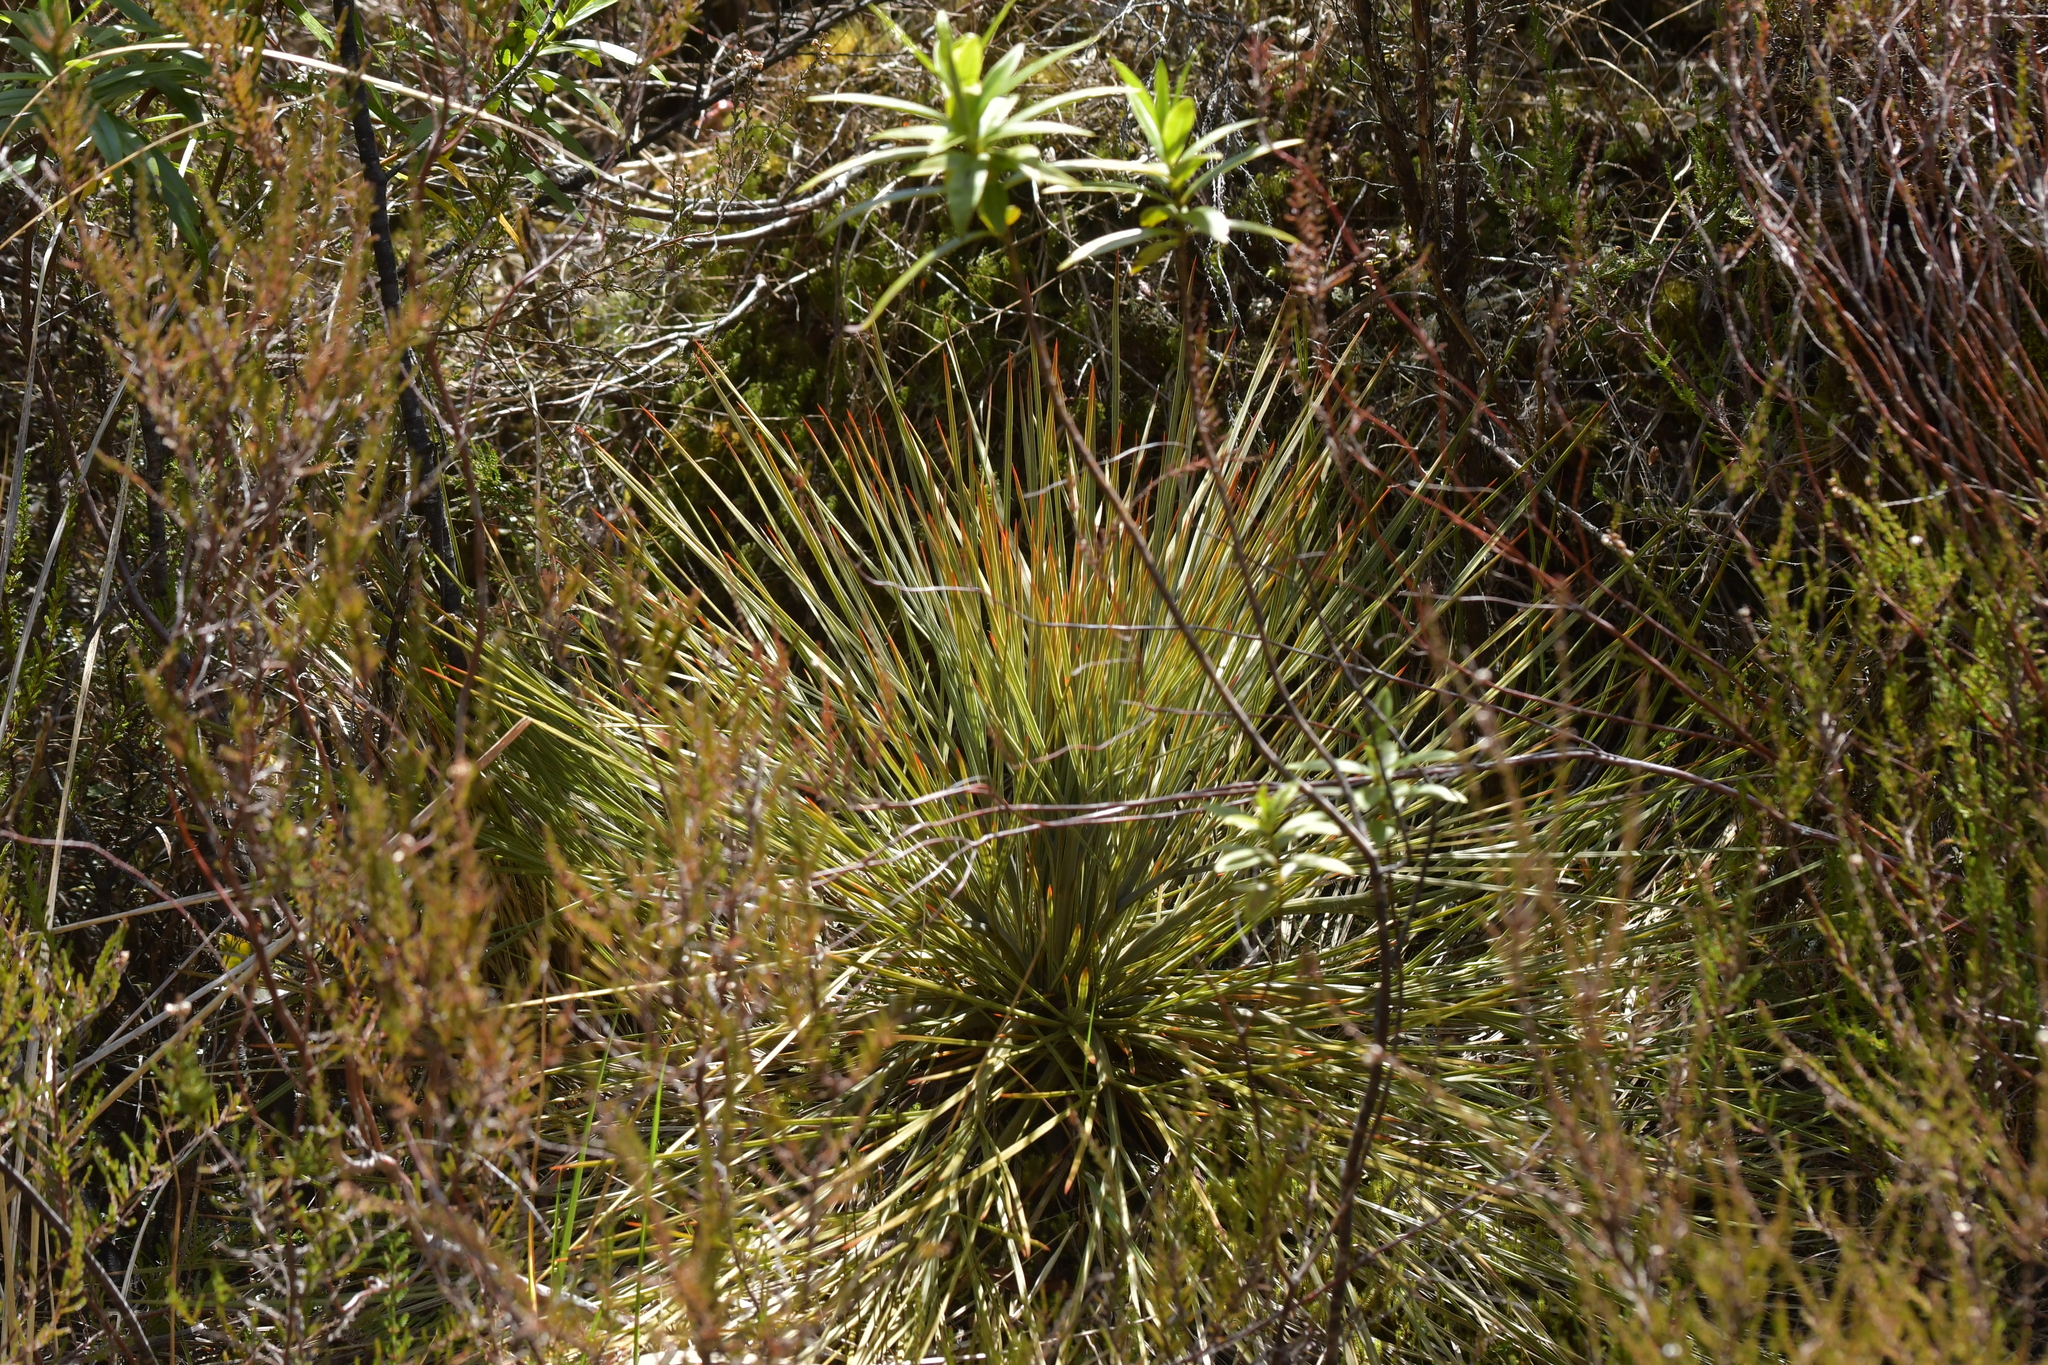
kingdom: Plantae
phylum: Tracheophyta
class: Magnoliopsida
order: Apiales
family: Apiaceae
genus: Aciphylla
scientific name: Aciphylla squarrosa
